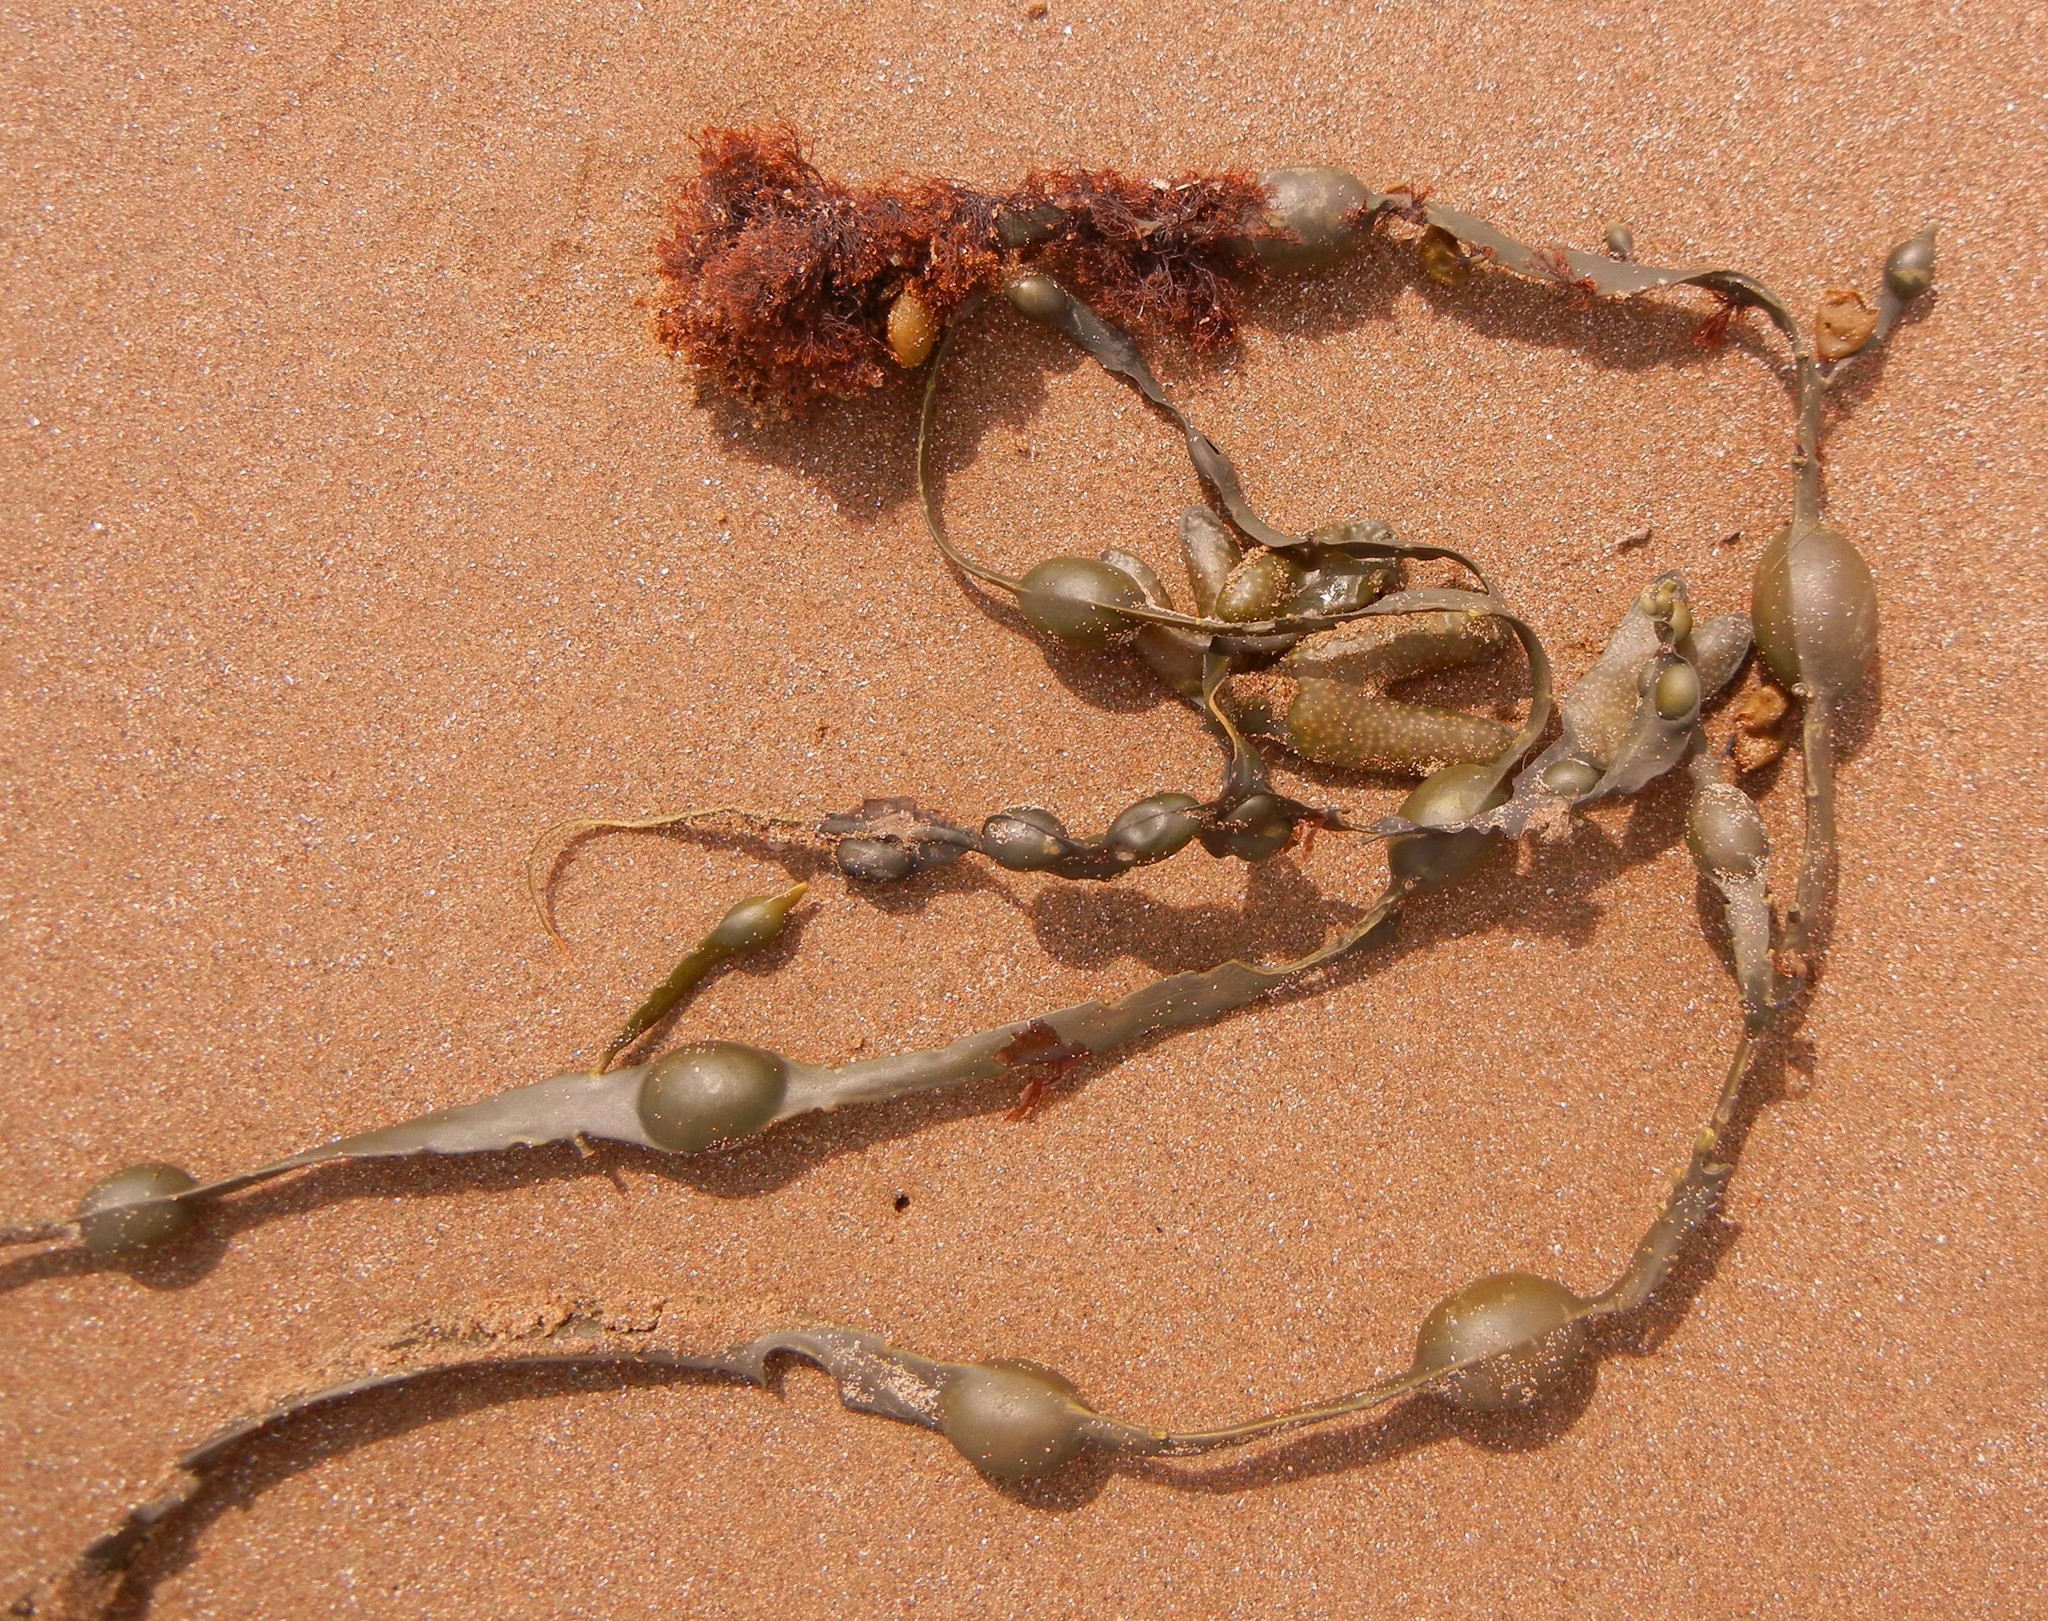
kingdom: Chromista
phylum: Ochrophyta
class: Phaeophyceae
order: Fucales
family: Fucaceae
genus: Ascophyllum
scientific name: Ascophyllum nodosum
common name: Knotted wrack
